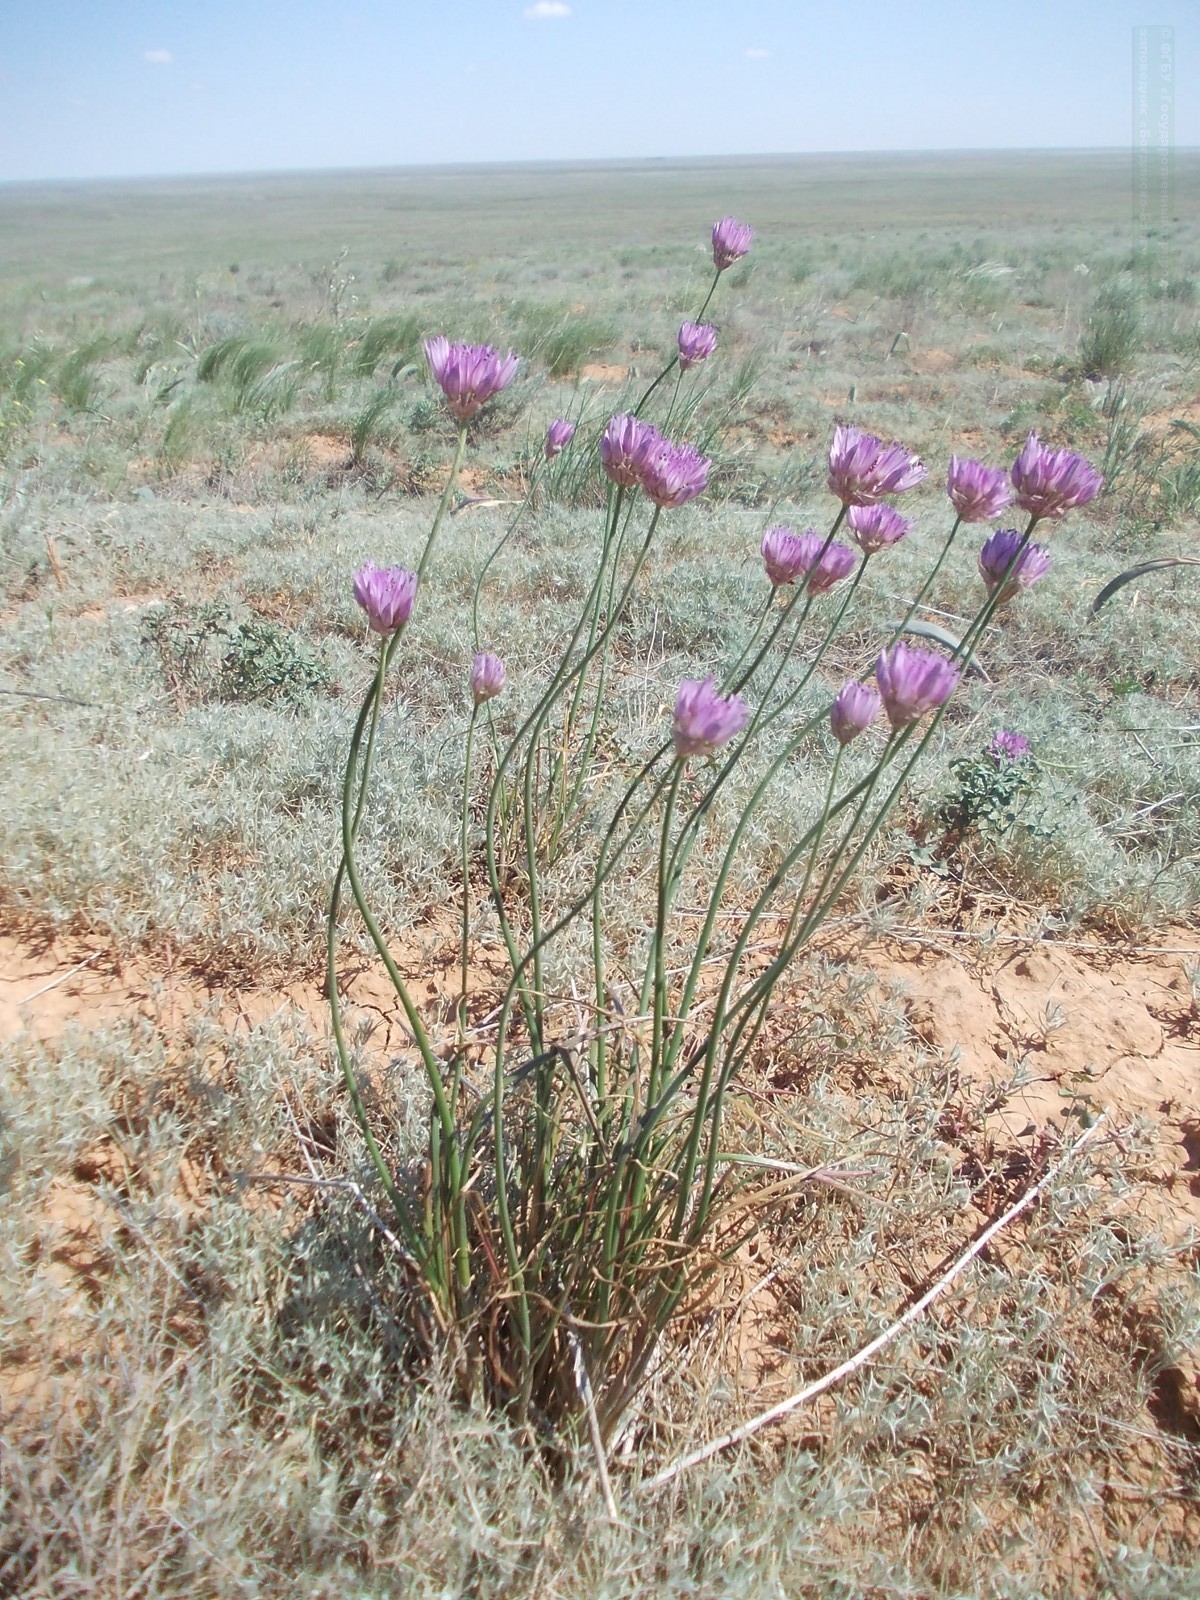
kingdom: Plantae
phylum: Tracheophyta
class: Liliopsida
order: Asparagales
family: Amaryllidaceae
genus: Allium
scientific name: Allium inderiense
